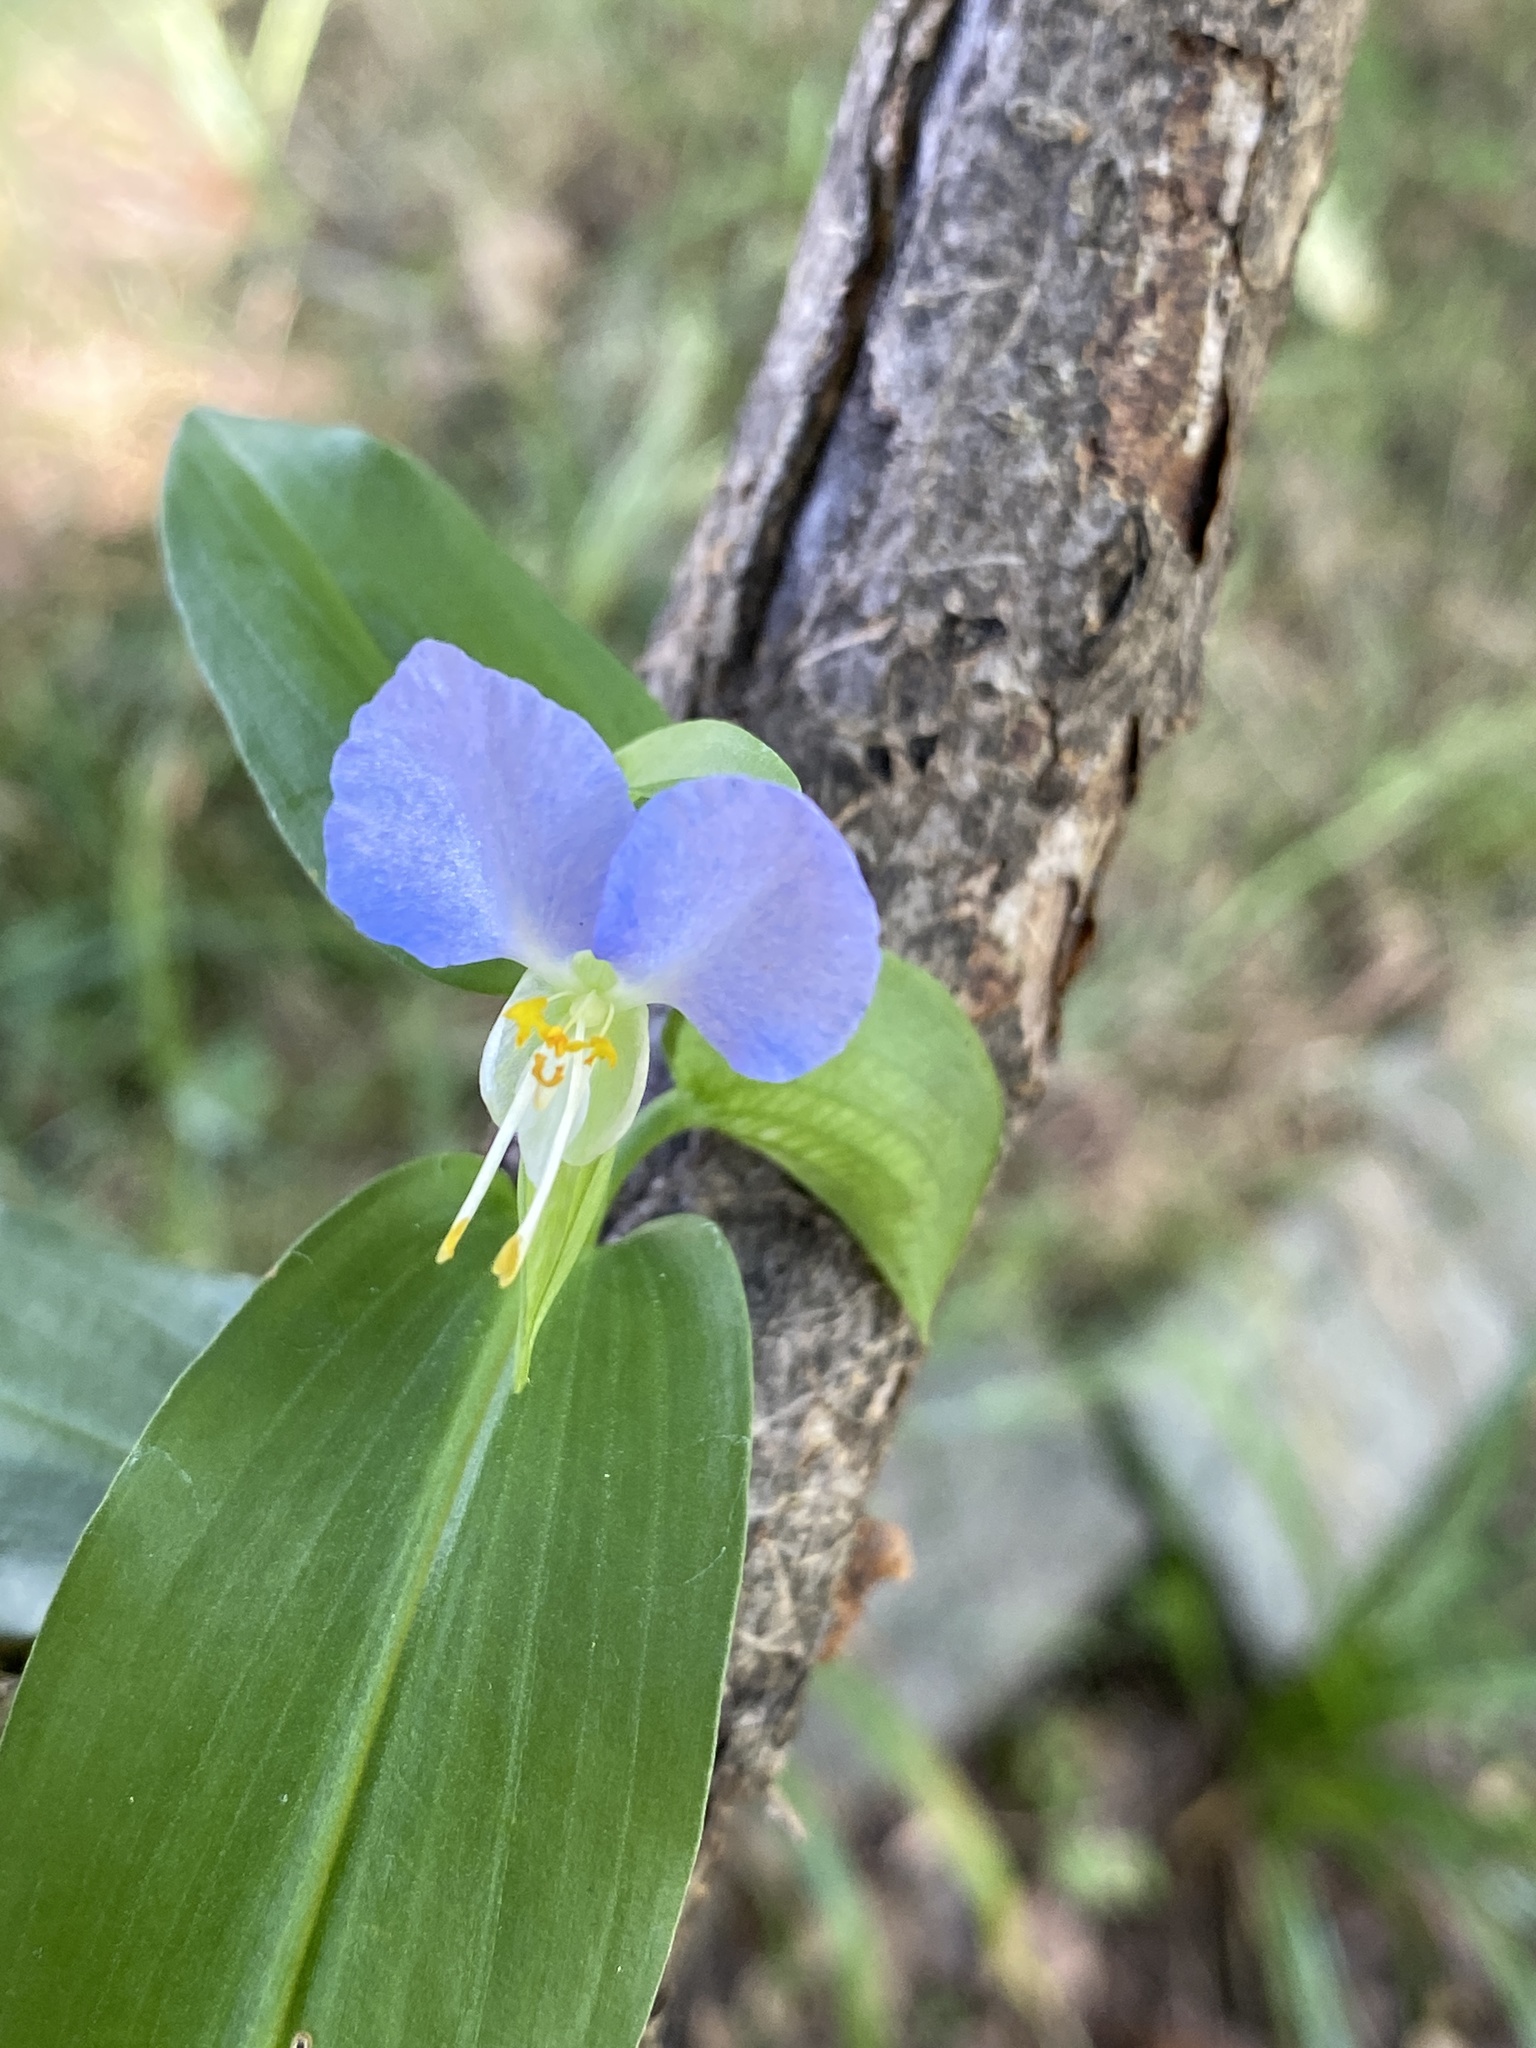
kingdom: Plantae
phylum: Tracheophyta
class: Liliopsida
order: Commelinales
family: Commelinaceae
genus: Commelina
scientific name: Commelina communis
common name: Asiatic dayflower
